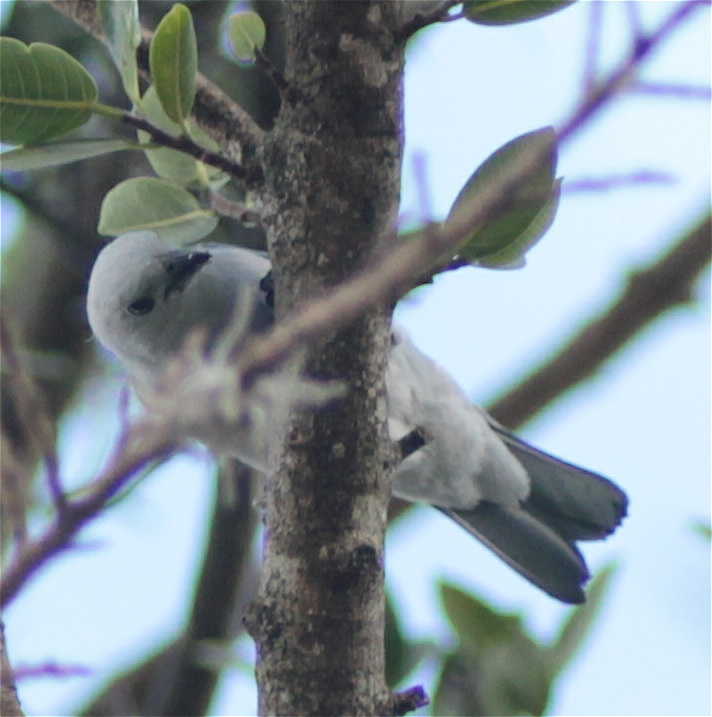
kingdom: Animalia
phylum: Chordata
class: Aves
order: Passeriformes
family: Thraupidae
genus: Thraupis
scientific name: Thraupis episcopus
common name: Blue-grey tanager
